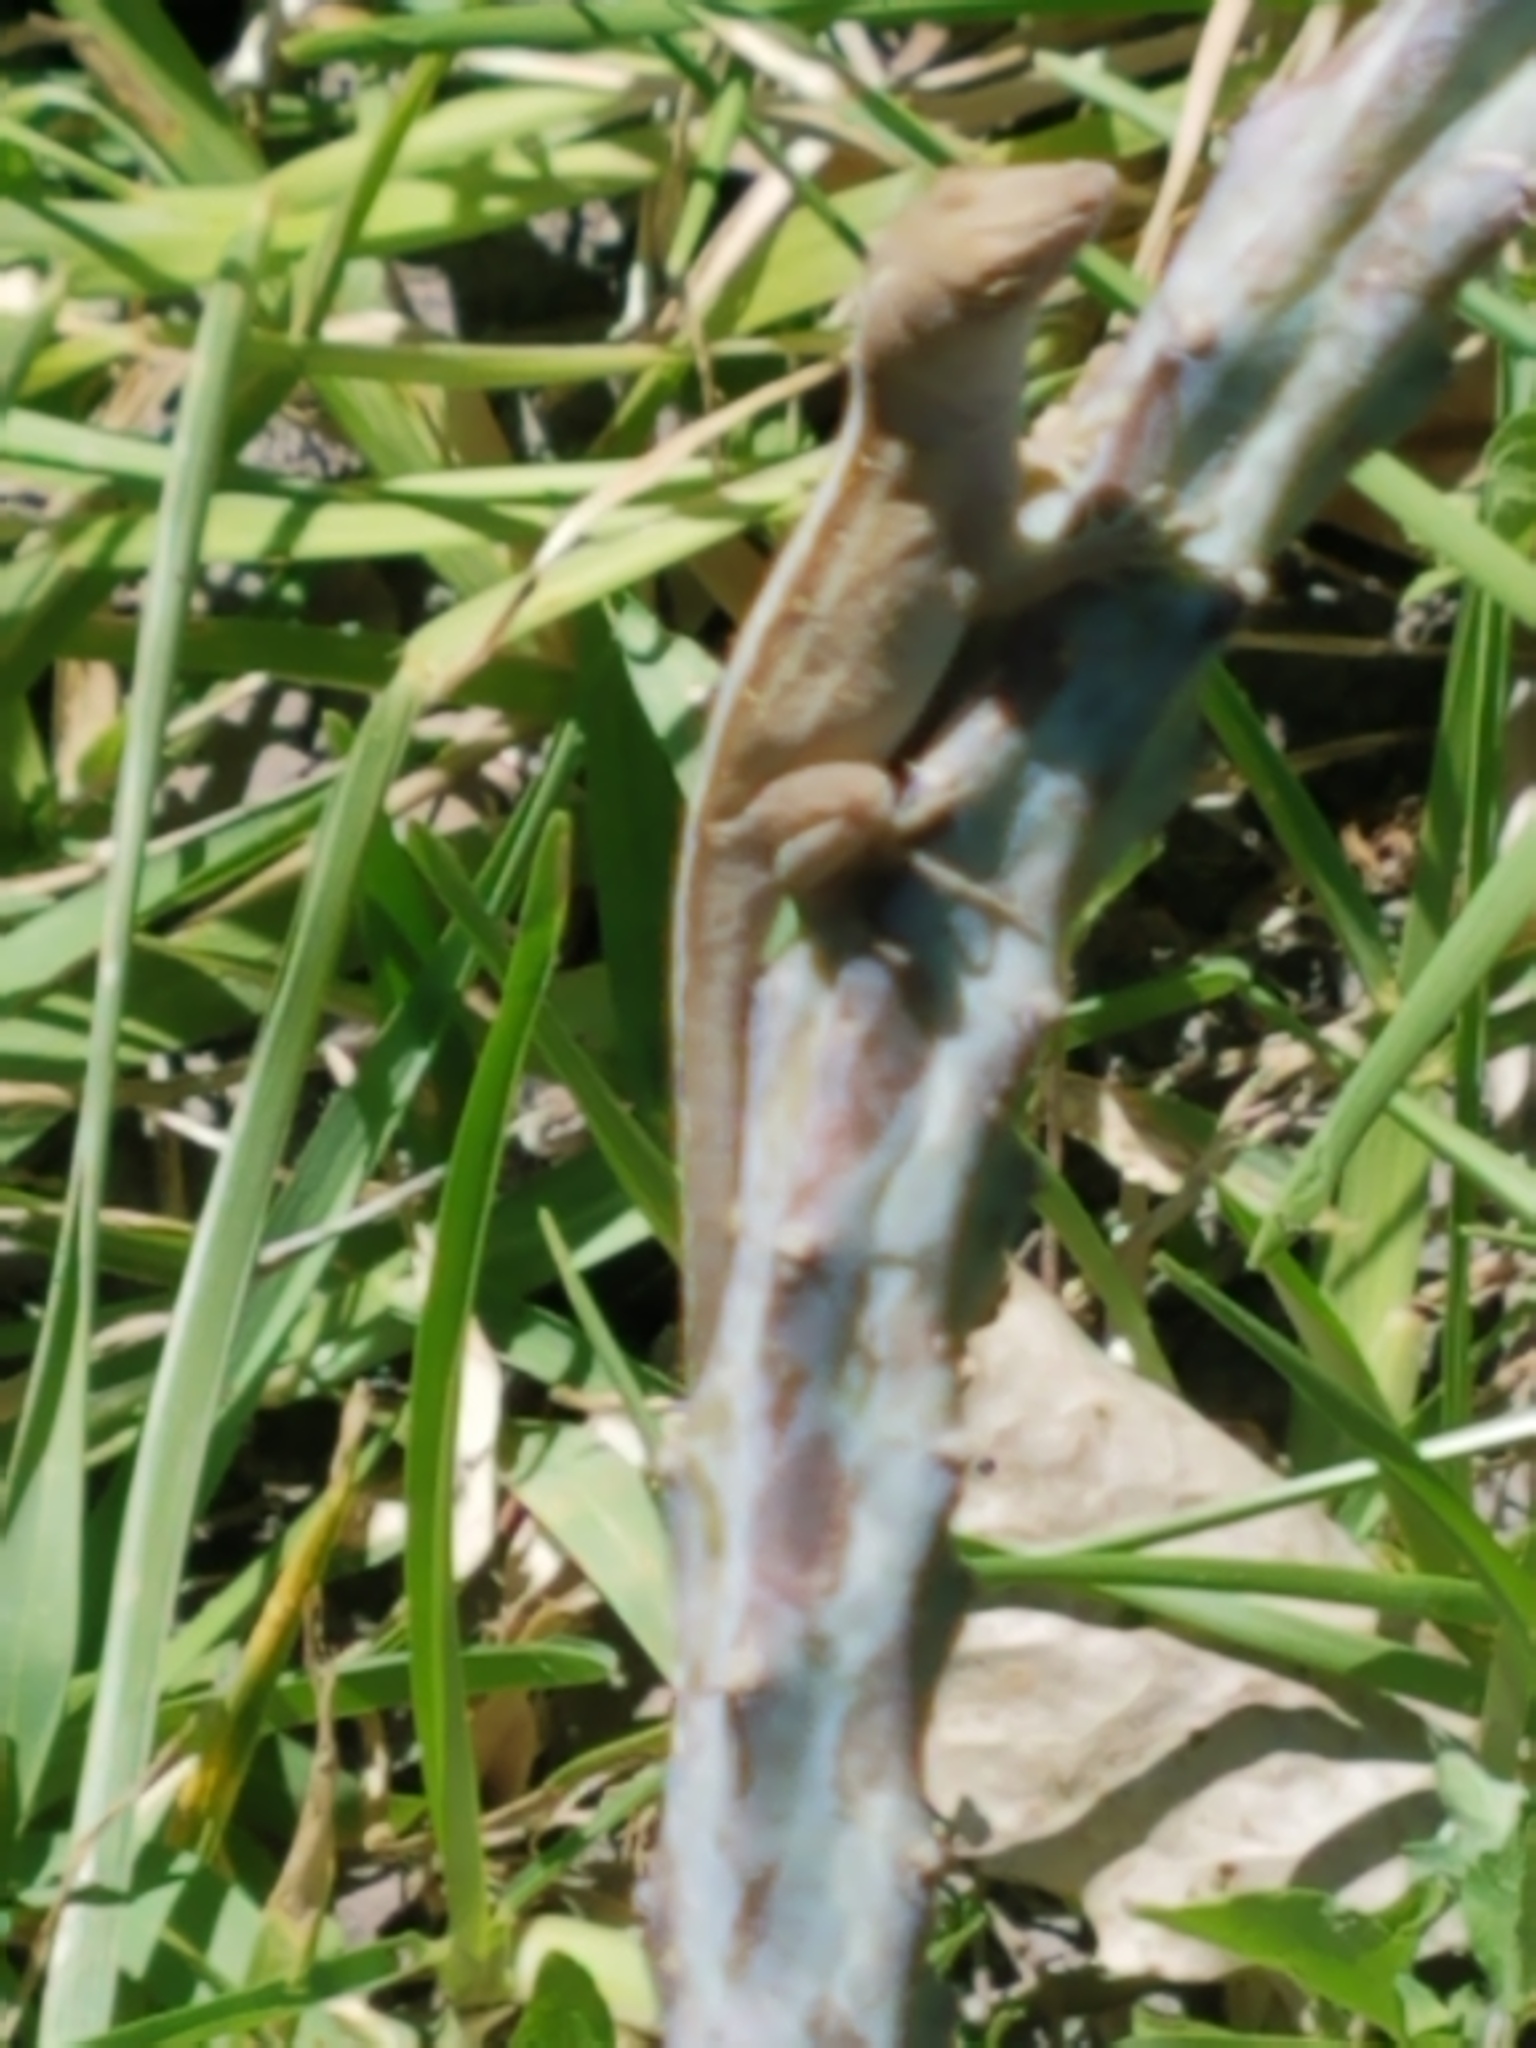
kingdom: Animalia
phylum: Chordata
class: Squamata
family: Dactyloidae
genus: Anolis
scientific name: Anolis sagrei
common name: Brown anole
